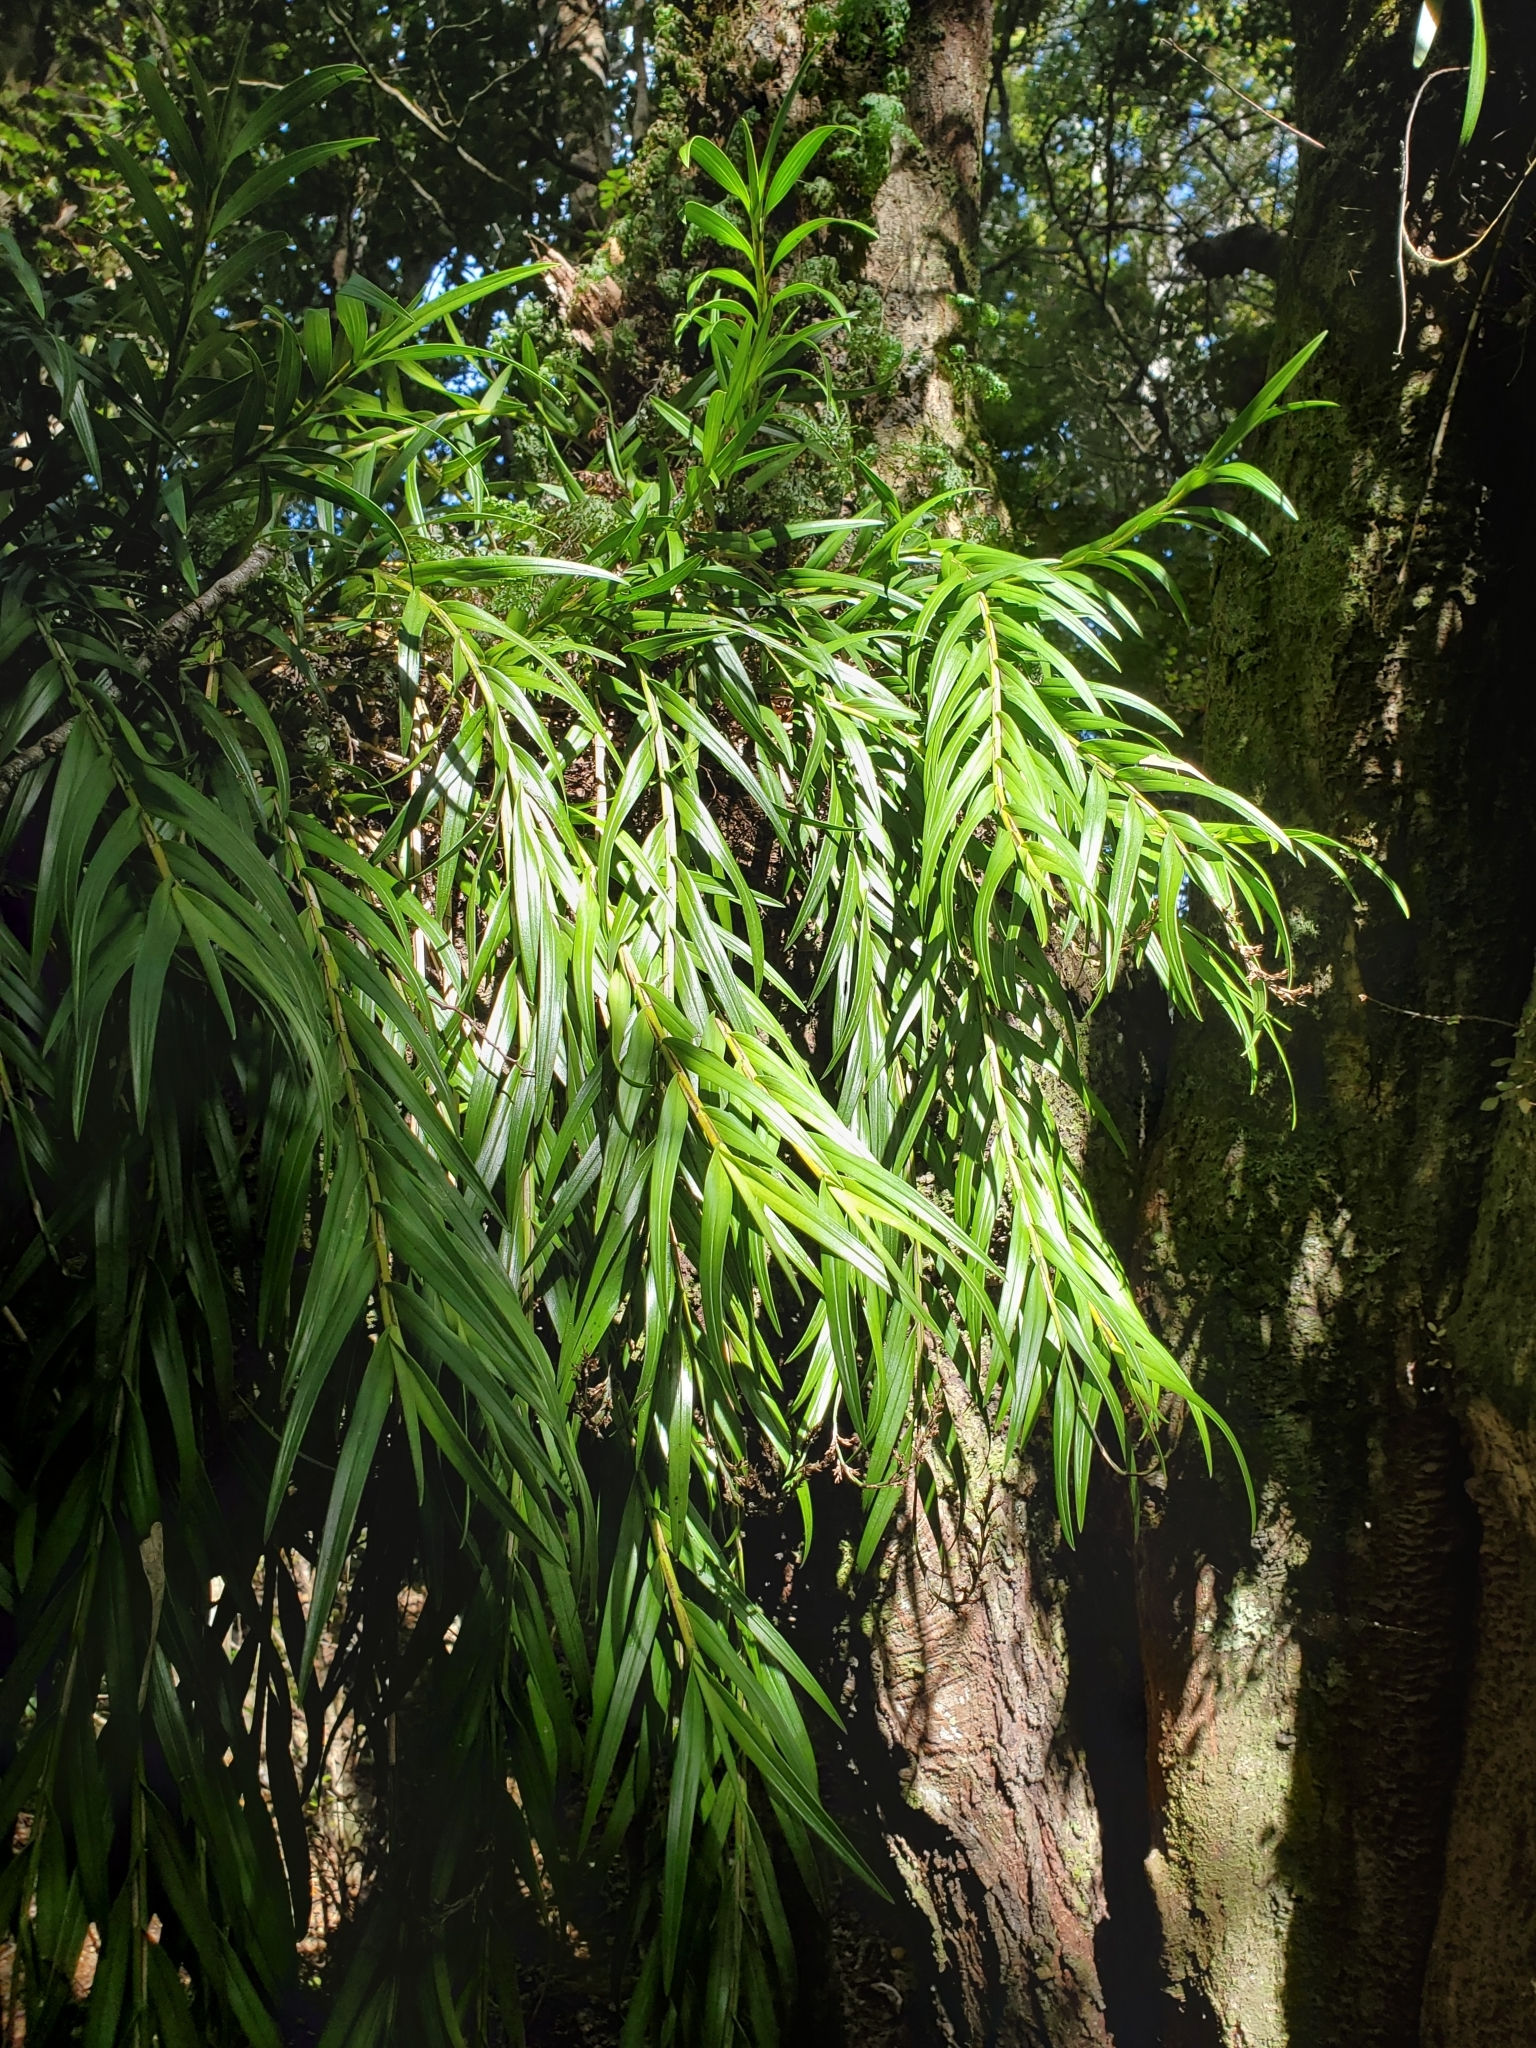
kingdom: Plantae
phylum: Tracheophyta
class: Liliopsida
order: Asparagales
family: Orchidaceae
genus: Earina
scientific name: Earina autumnalis
